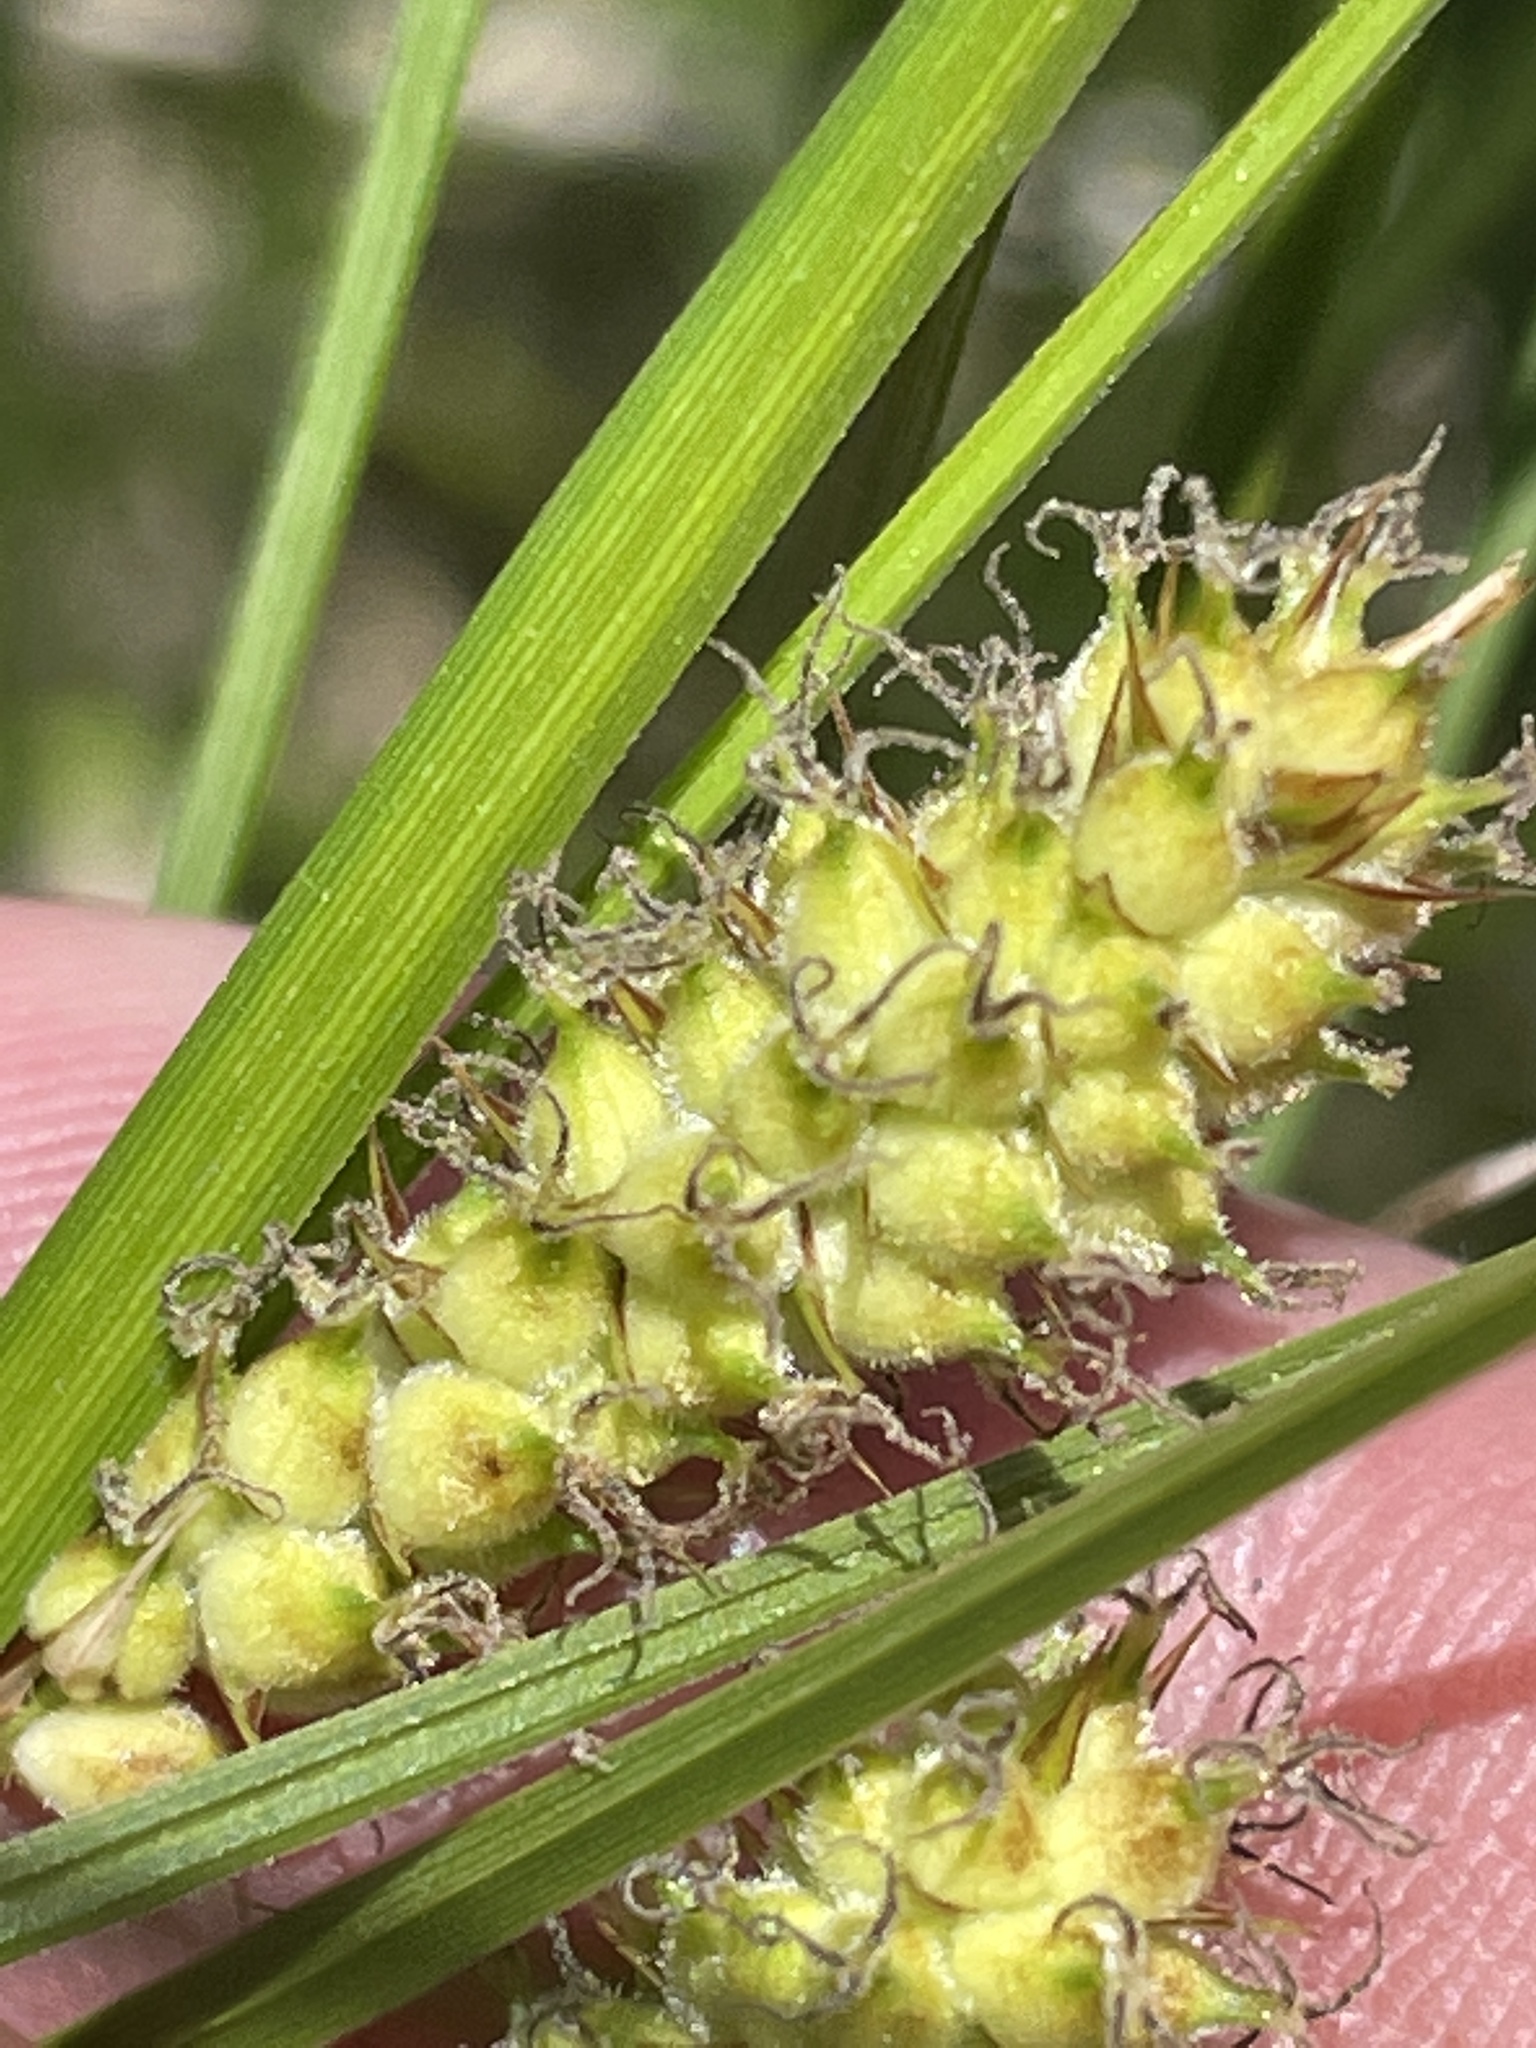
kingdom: Plantae
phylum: Tracheophyta
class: Liliopsida
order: Poales
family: Cyperaceae
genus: Carex
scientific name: Carex pellita
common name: Woolly sedge
